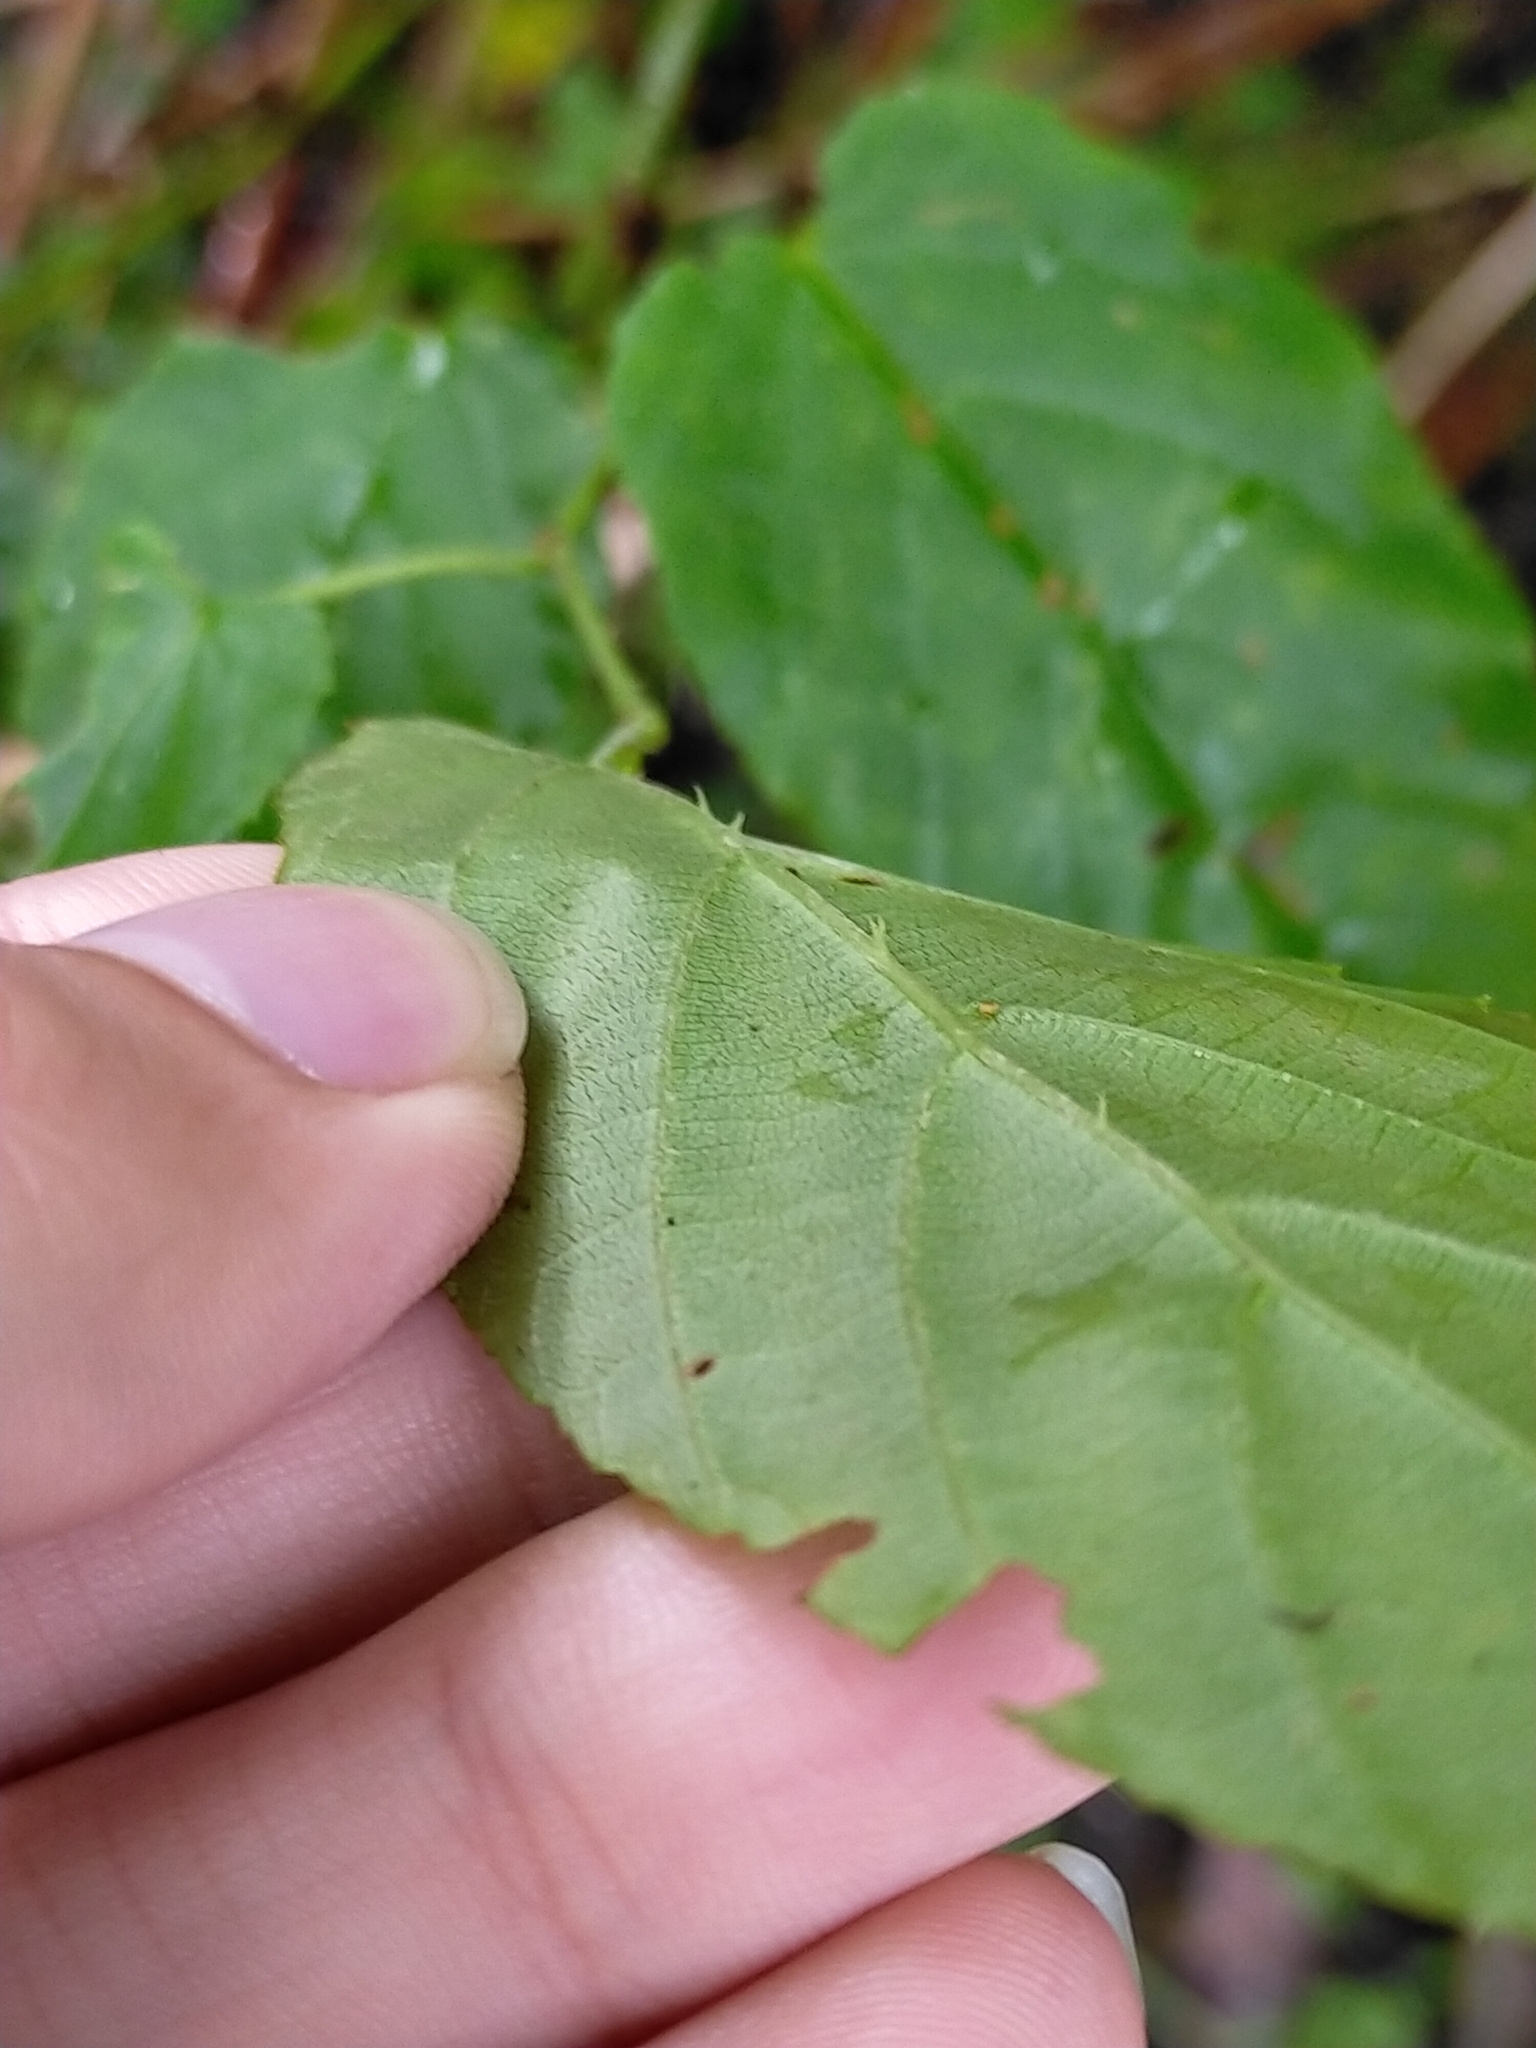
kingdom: Plantae
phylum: Tracheophyta
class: Magnoliopsida
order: Rosales
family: Rosaceae
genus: Rubus
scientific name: Rubus kawakamii
